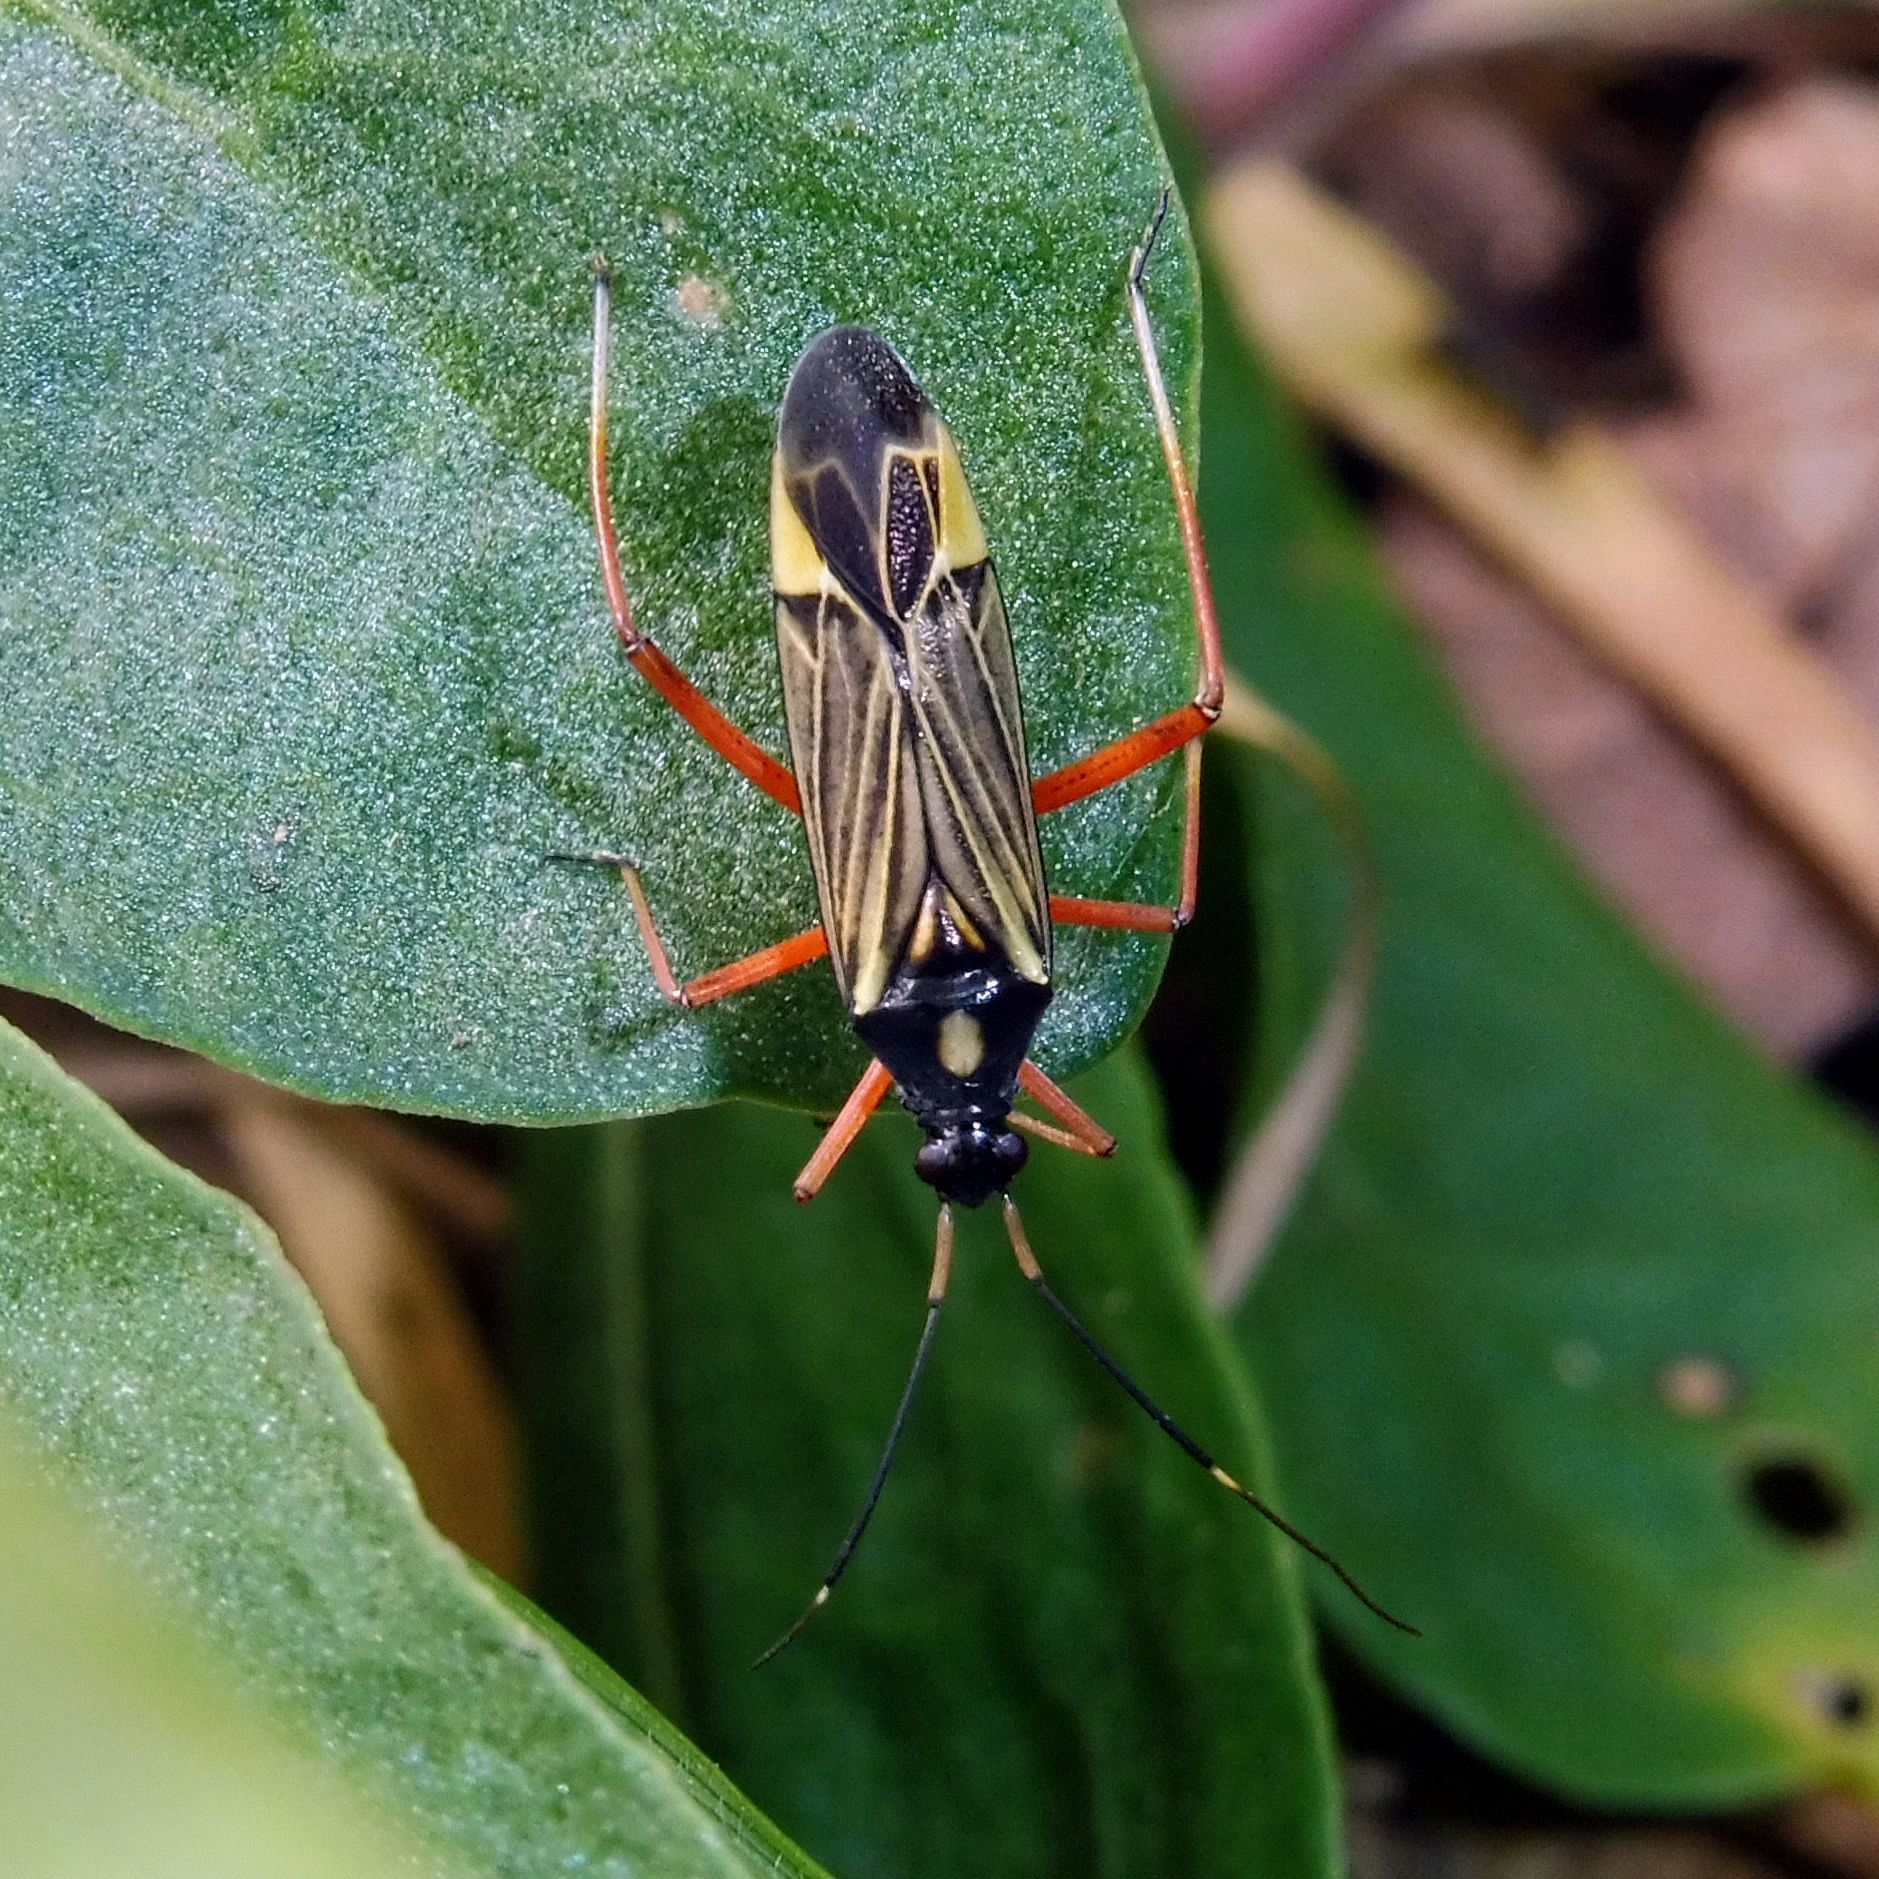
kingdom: Animalia
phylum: Arthropoda
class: Insecta
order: Hemiptera
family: Miridae
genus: Miris
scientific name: Miris striatus
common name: Fine streaked bugkin
